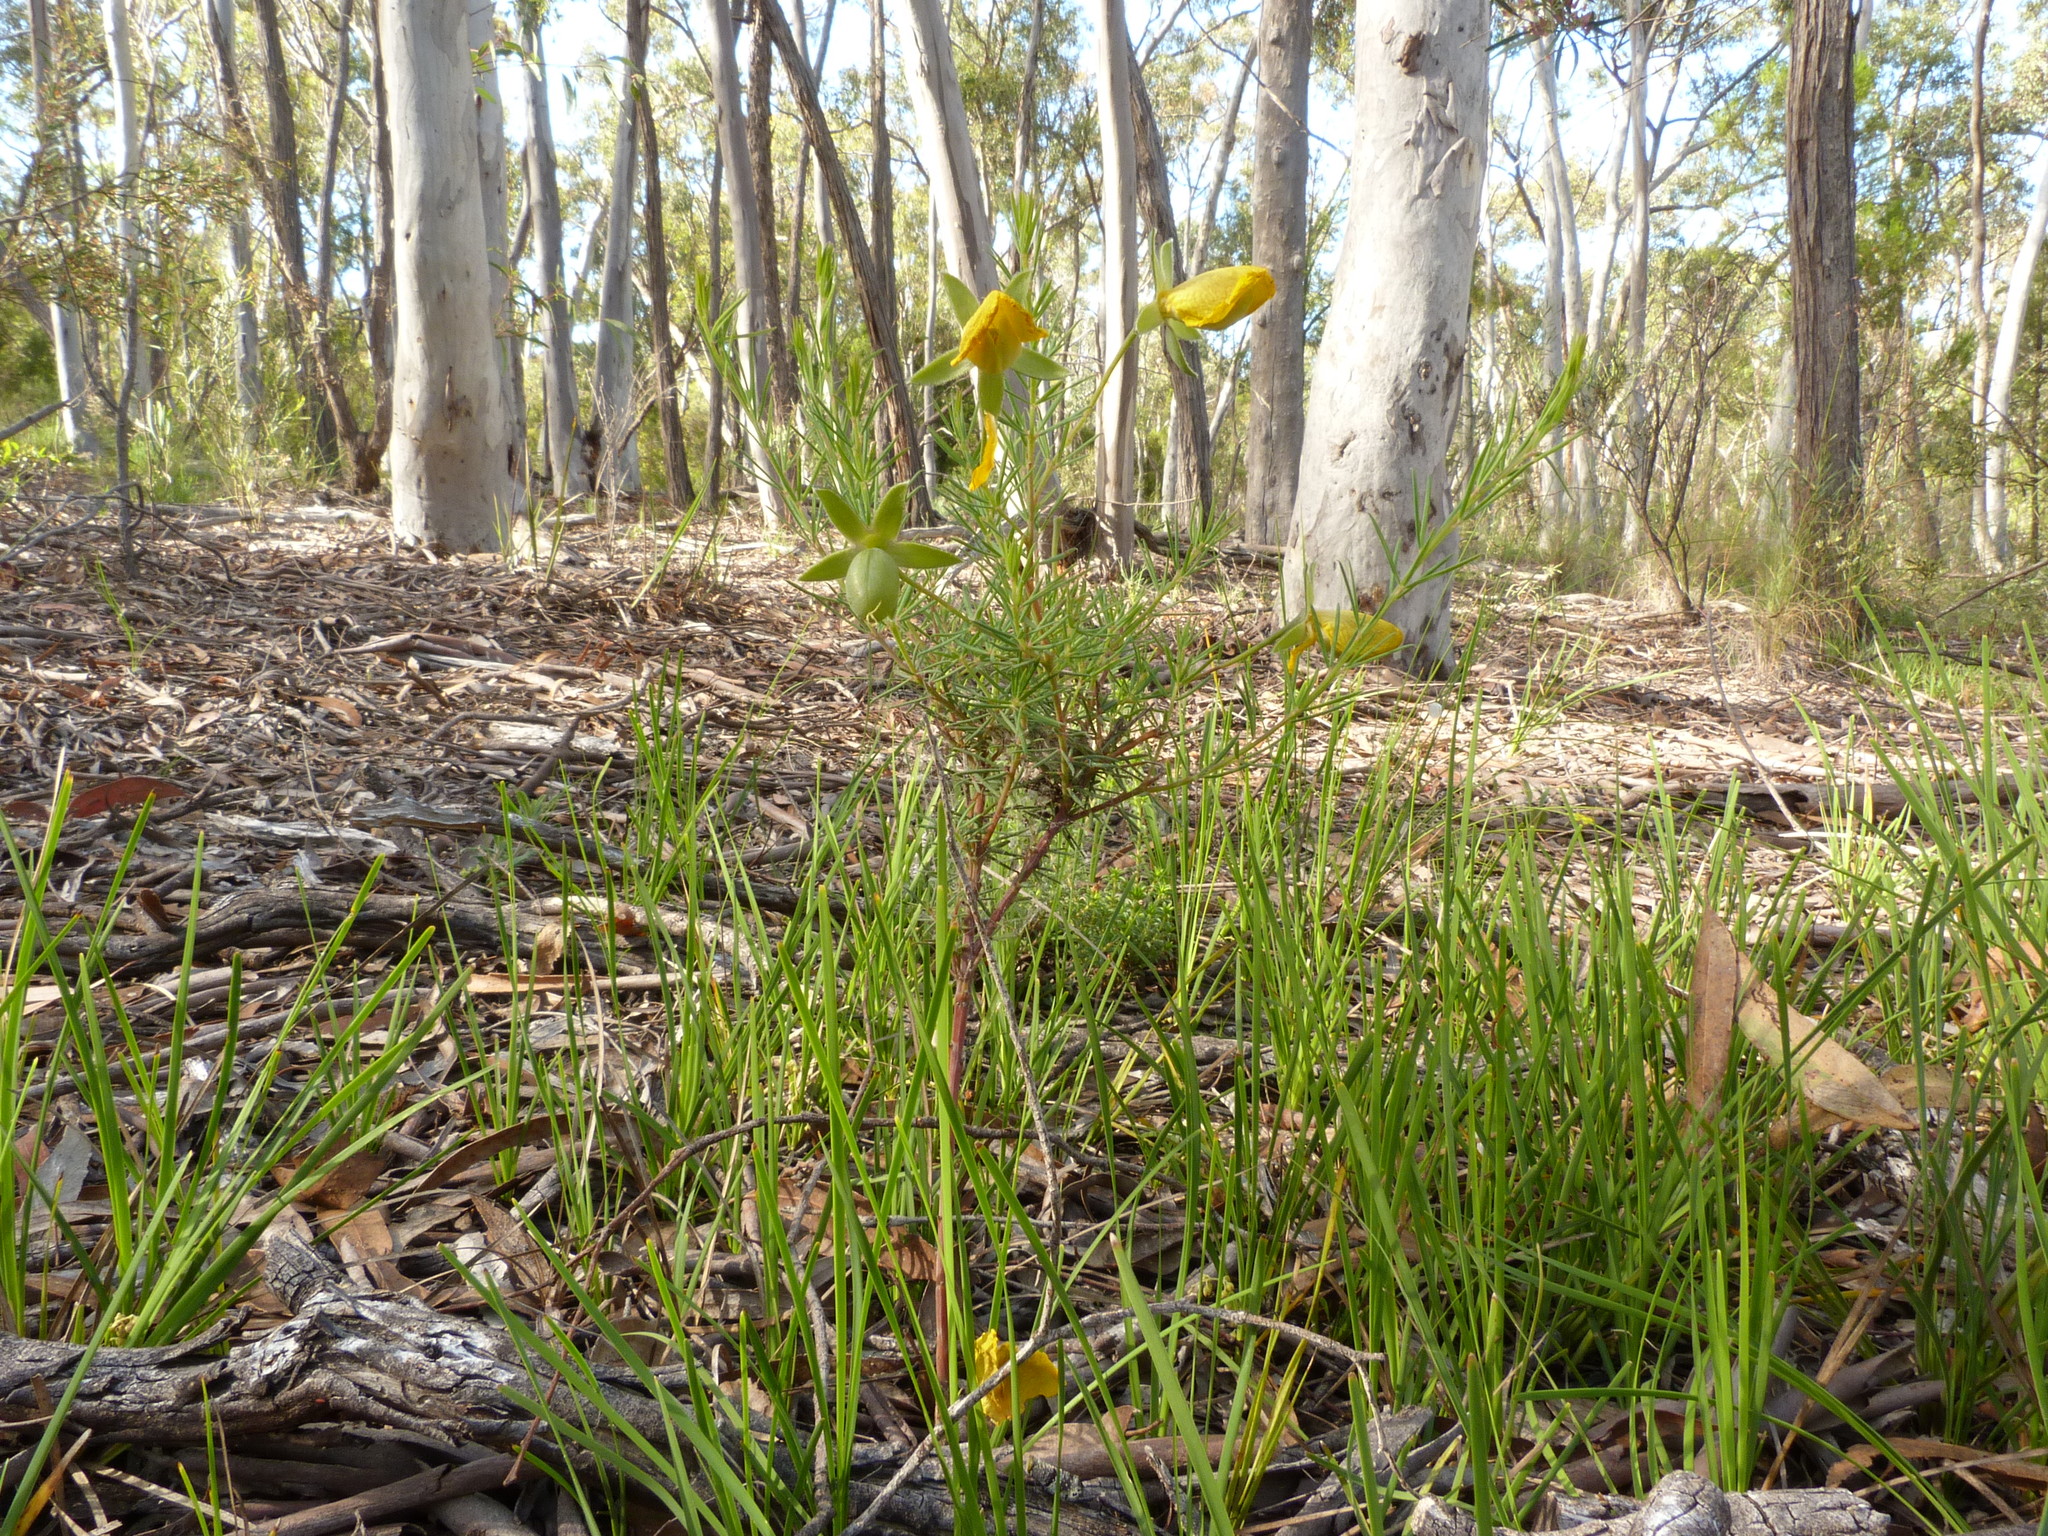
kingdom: Plantae
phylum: Tracheophyta
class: Magnoliopsida
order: Fabales
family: Fabaceae
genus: Gompholobium
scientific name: Gompholobium huegelii
